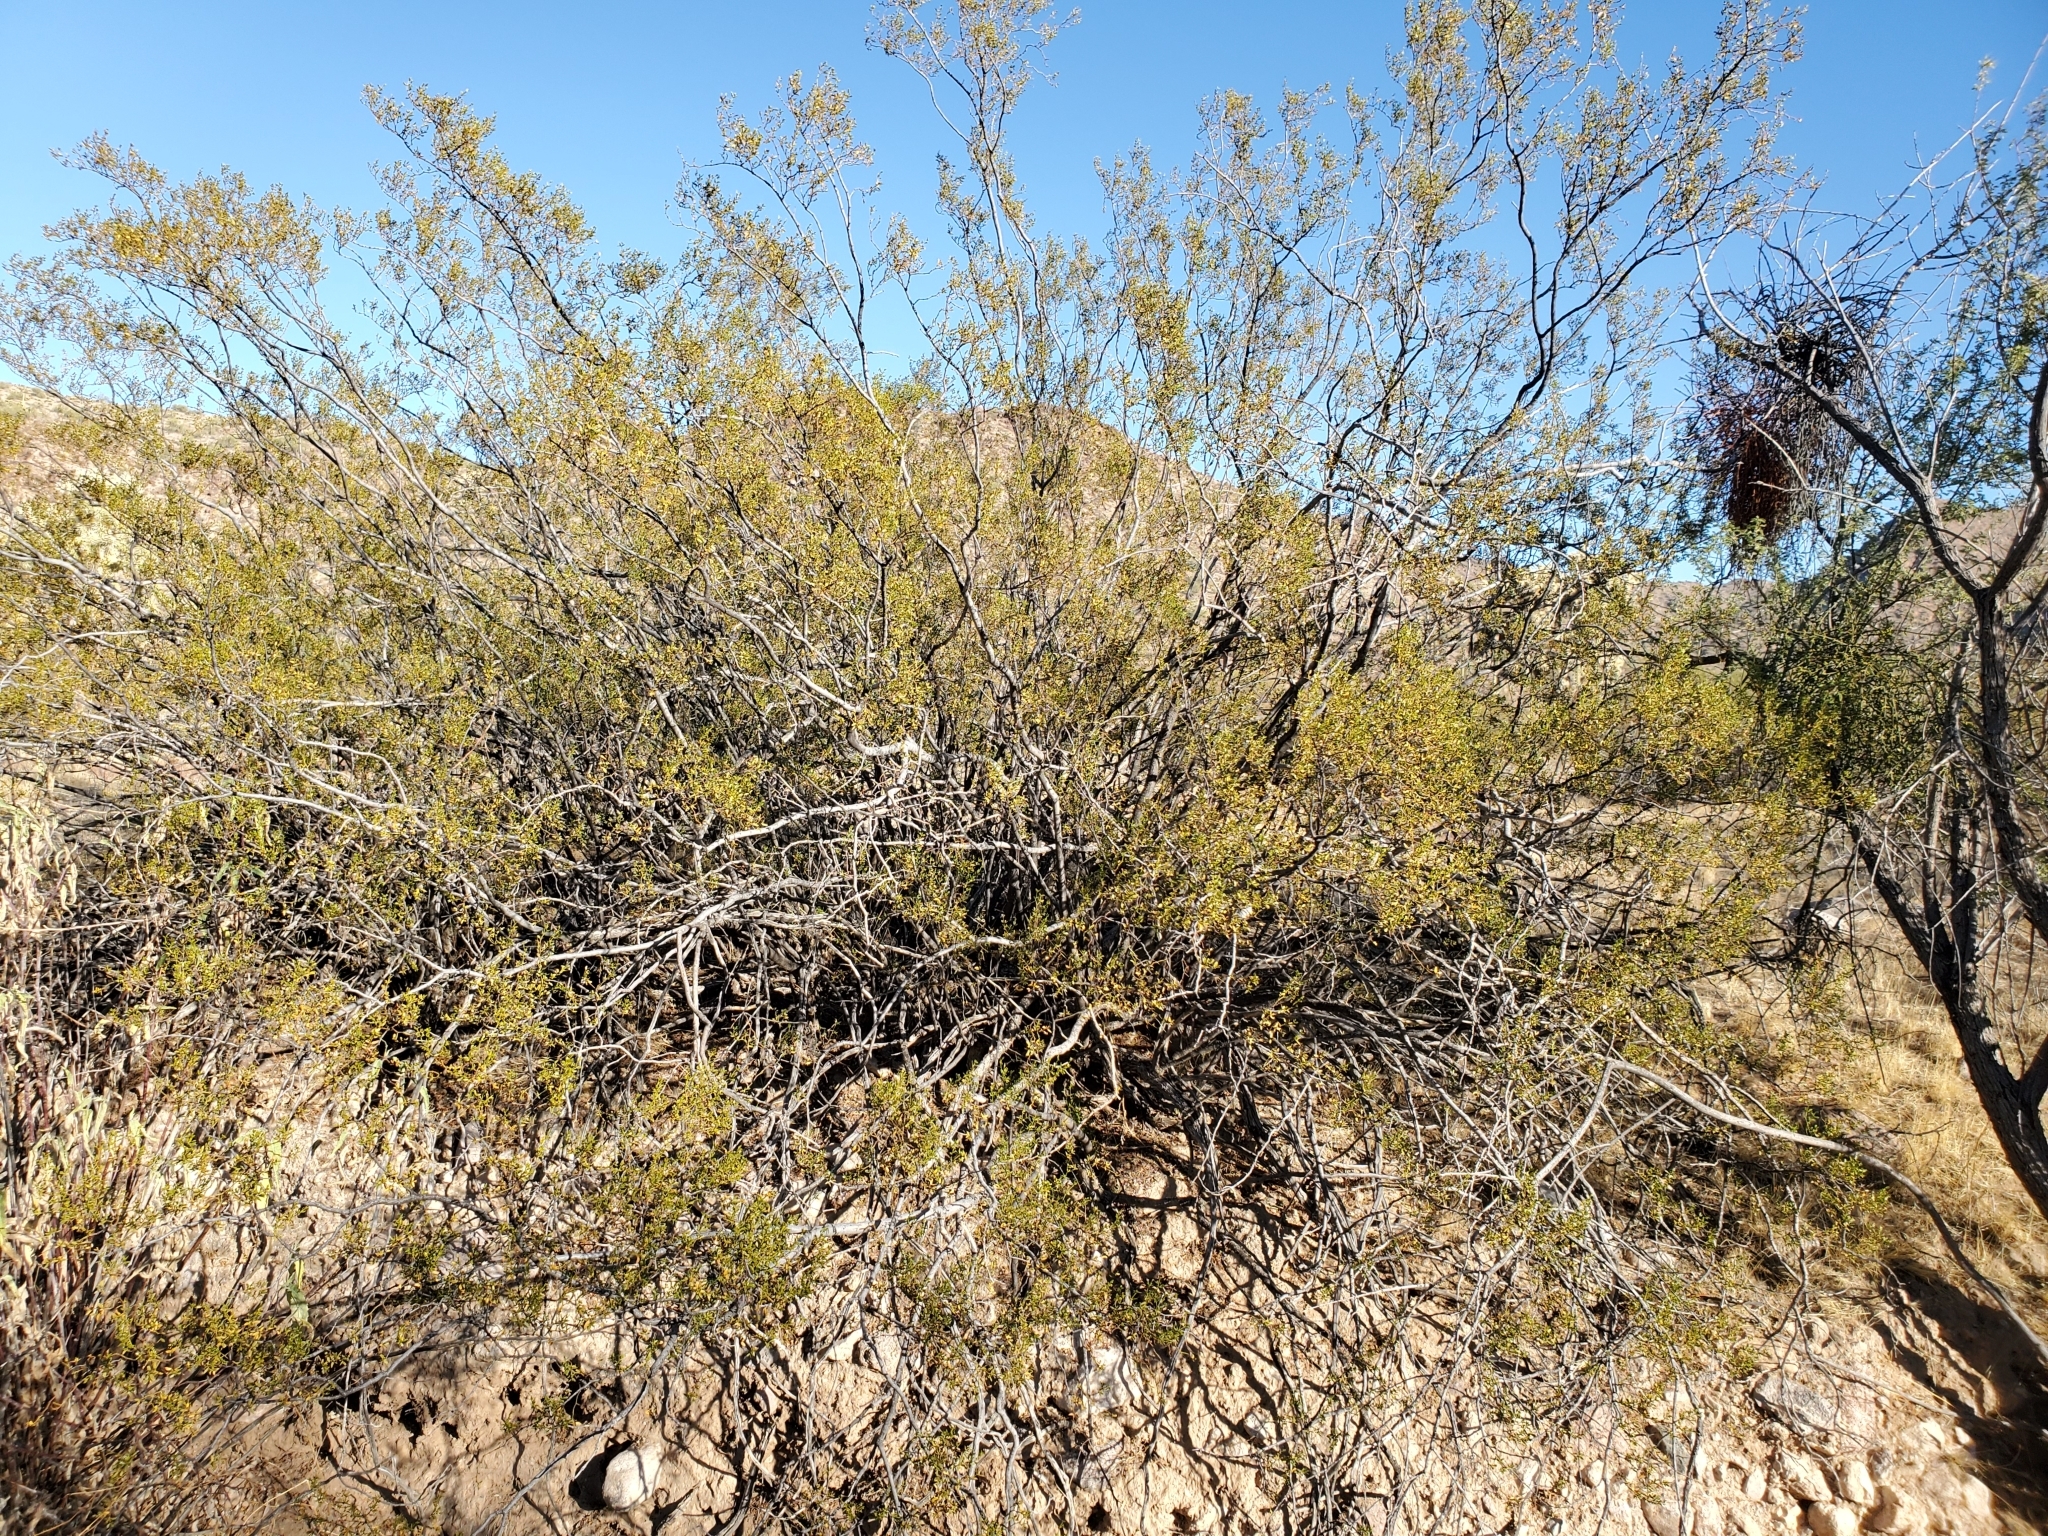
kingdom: Plantae
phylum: Tracheophyta
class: Magnoliopsida
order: Zygophyllales
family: Zygophyllaceae
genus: Larrea
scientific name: Larrea tridentata
